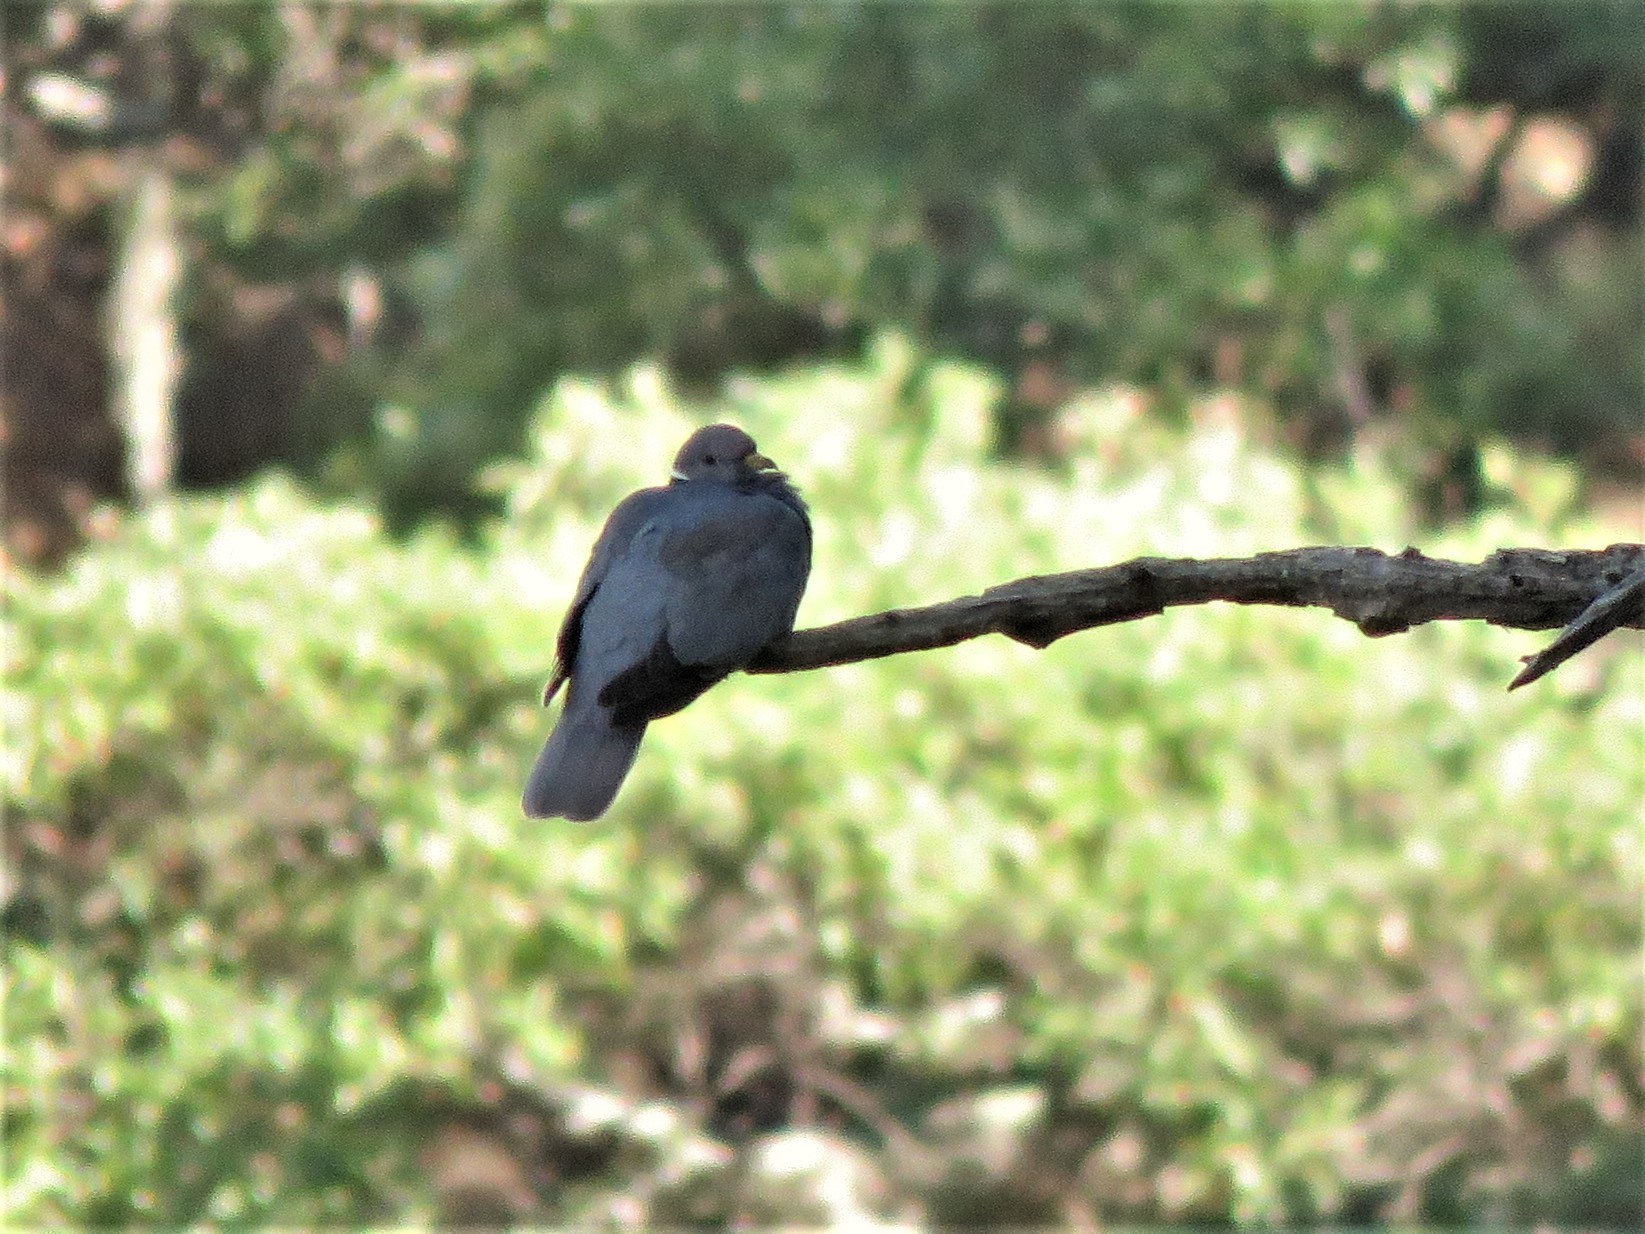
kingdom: Animalia
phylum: Chordata
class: Aves
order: Columbiformes
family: Columbidae
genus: Patagioenas
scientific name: Patagioenas fasciata
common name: Band-tailed pigeon
